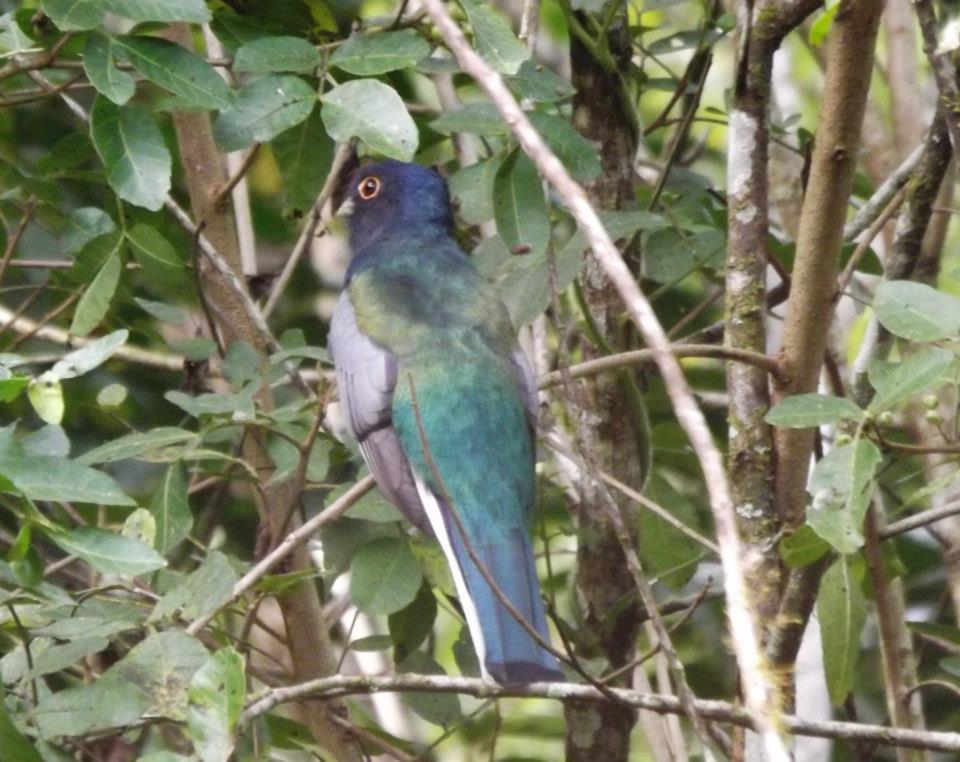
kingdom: Animalia
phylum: Chordata
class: Aves
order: Trogoniformes
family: Trogonidae
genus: Trogon
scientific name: Trogon surrucura
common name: Surucua trogon
